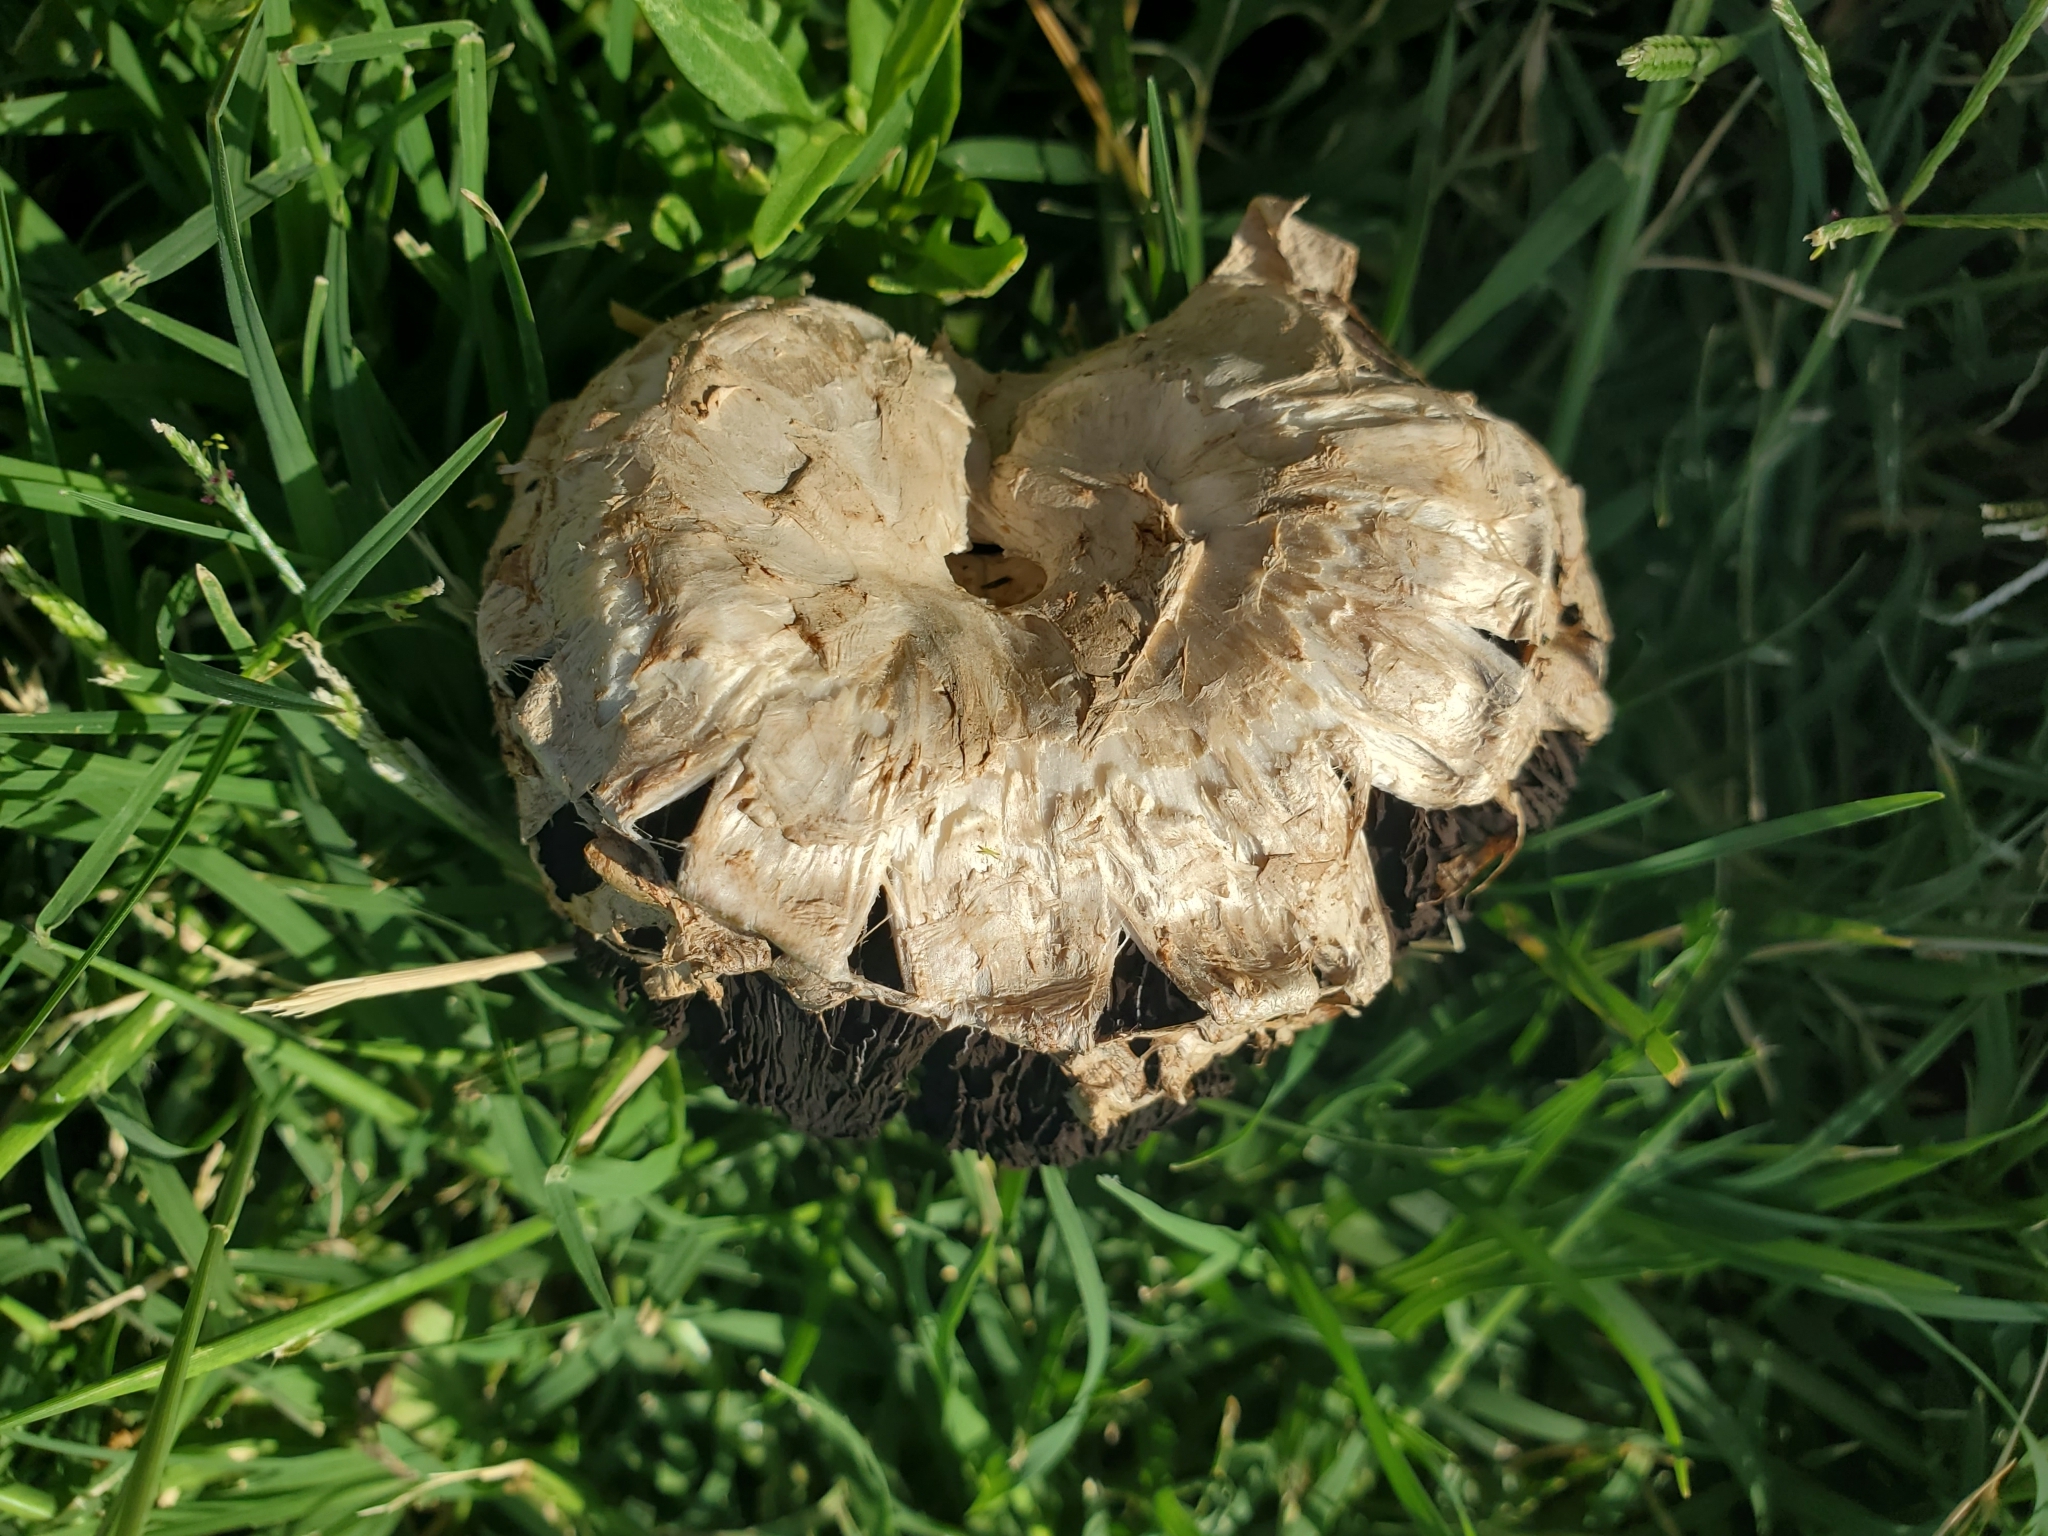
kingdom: Fungi
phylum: Basidiomycota
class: Agaricomycetes
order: Agaricales
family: Agaricaceae
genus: Agaricus
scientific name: Agaricus deserticola
